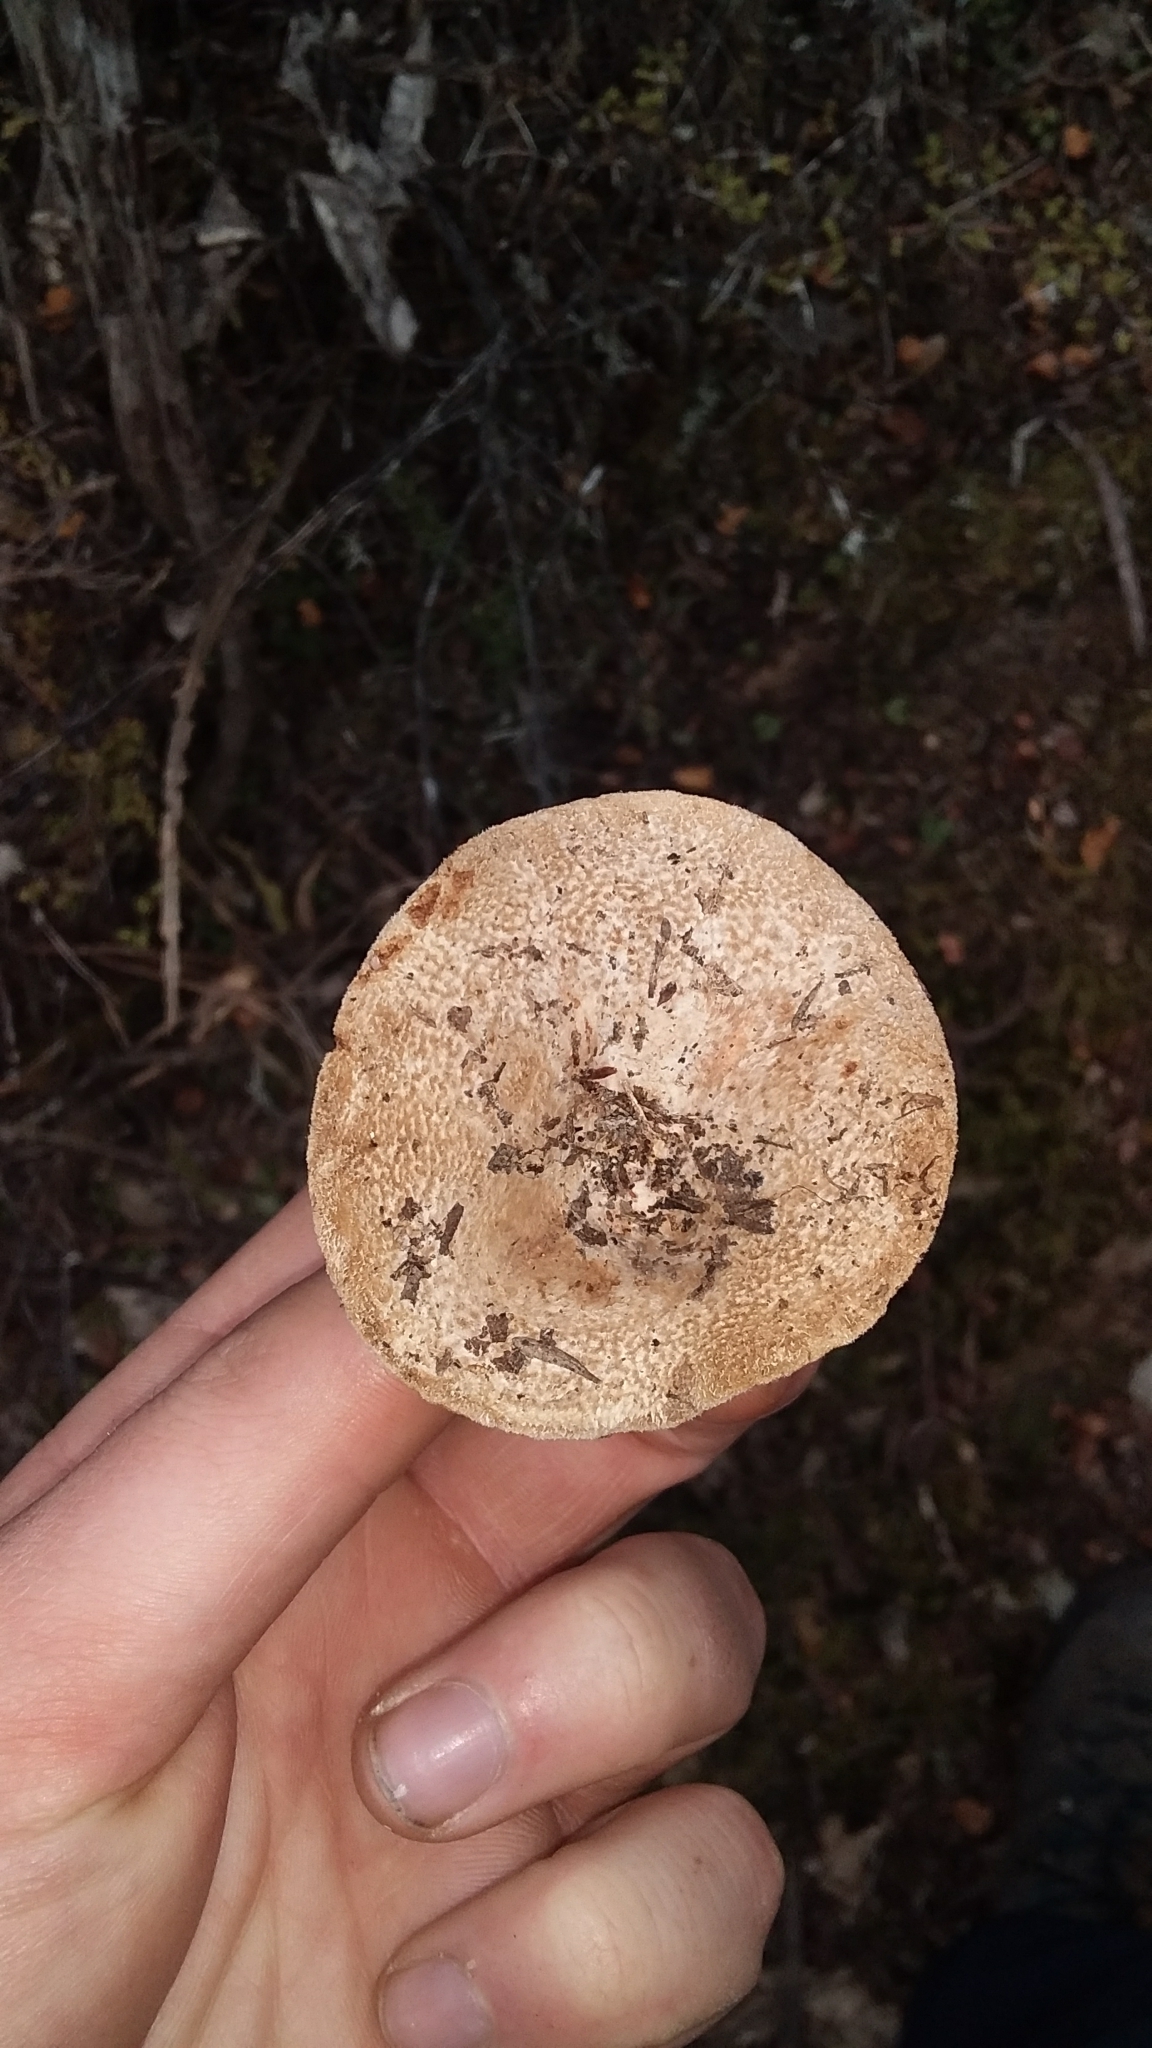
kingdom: Fungi
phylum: Basidiomycota
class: Agaricomycetes
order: Russulales
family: Russulaceae
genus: Lactifluus
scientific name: Lactifluus clarkeae
